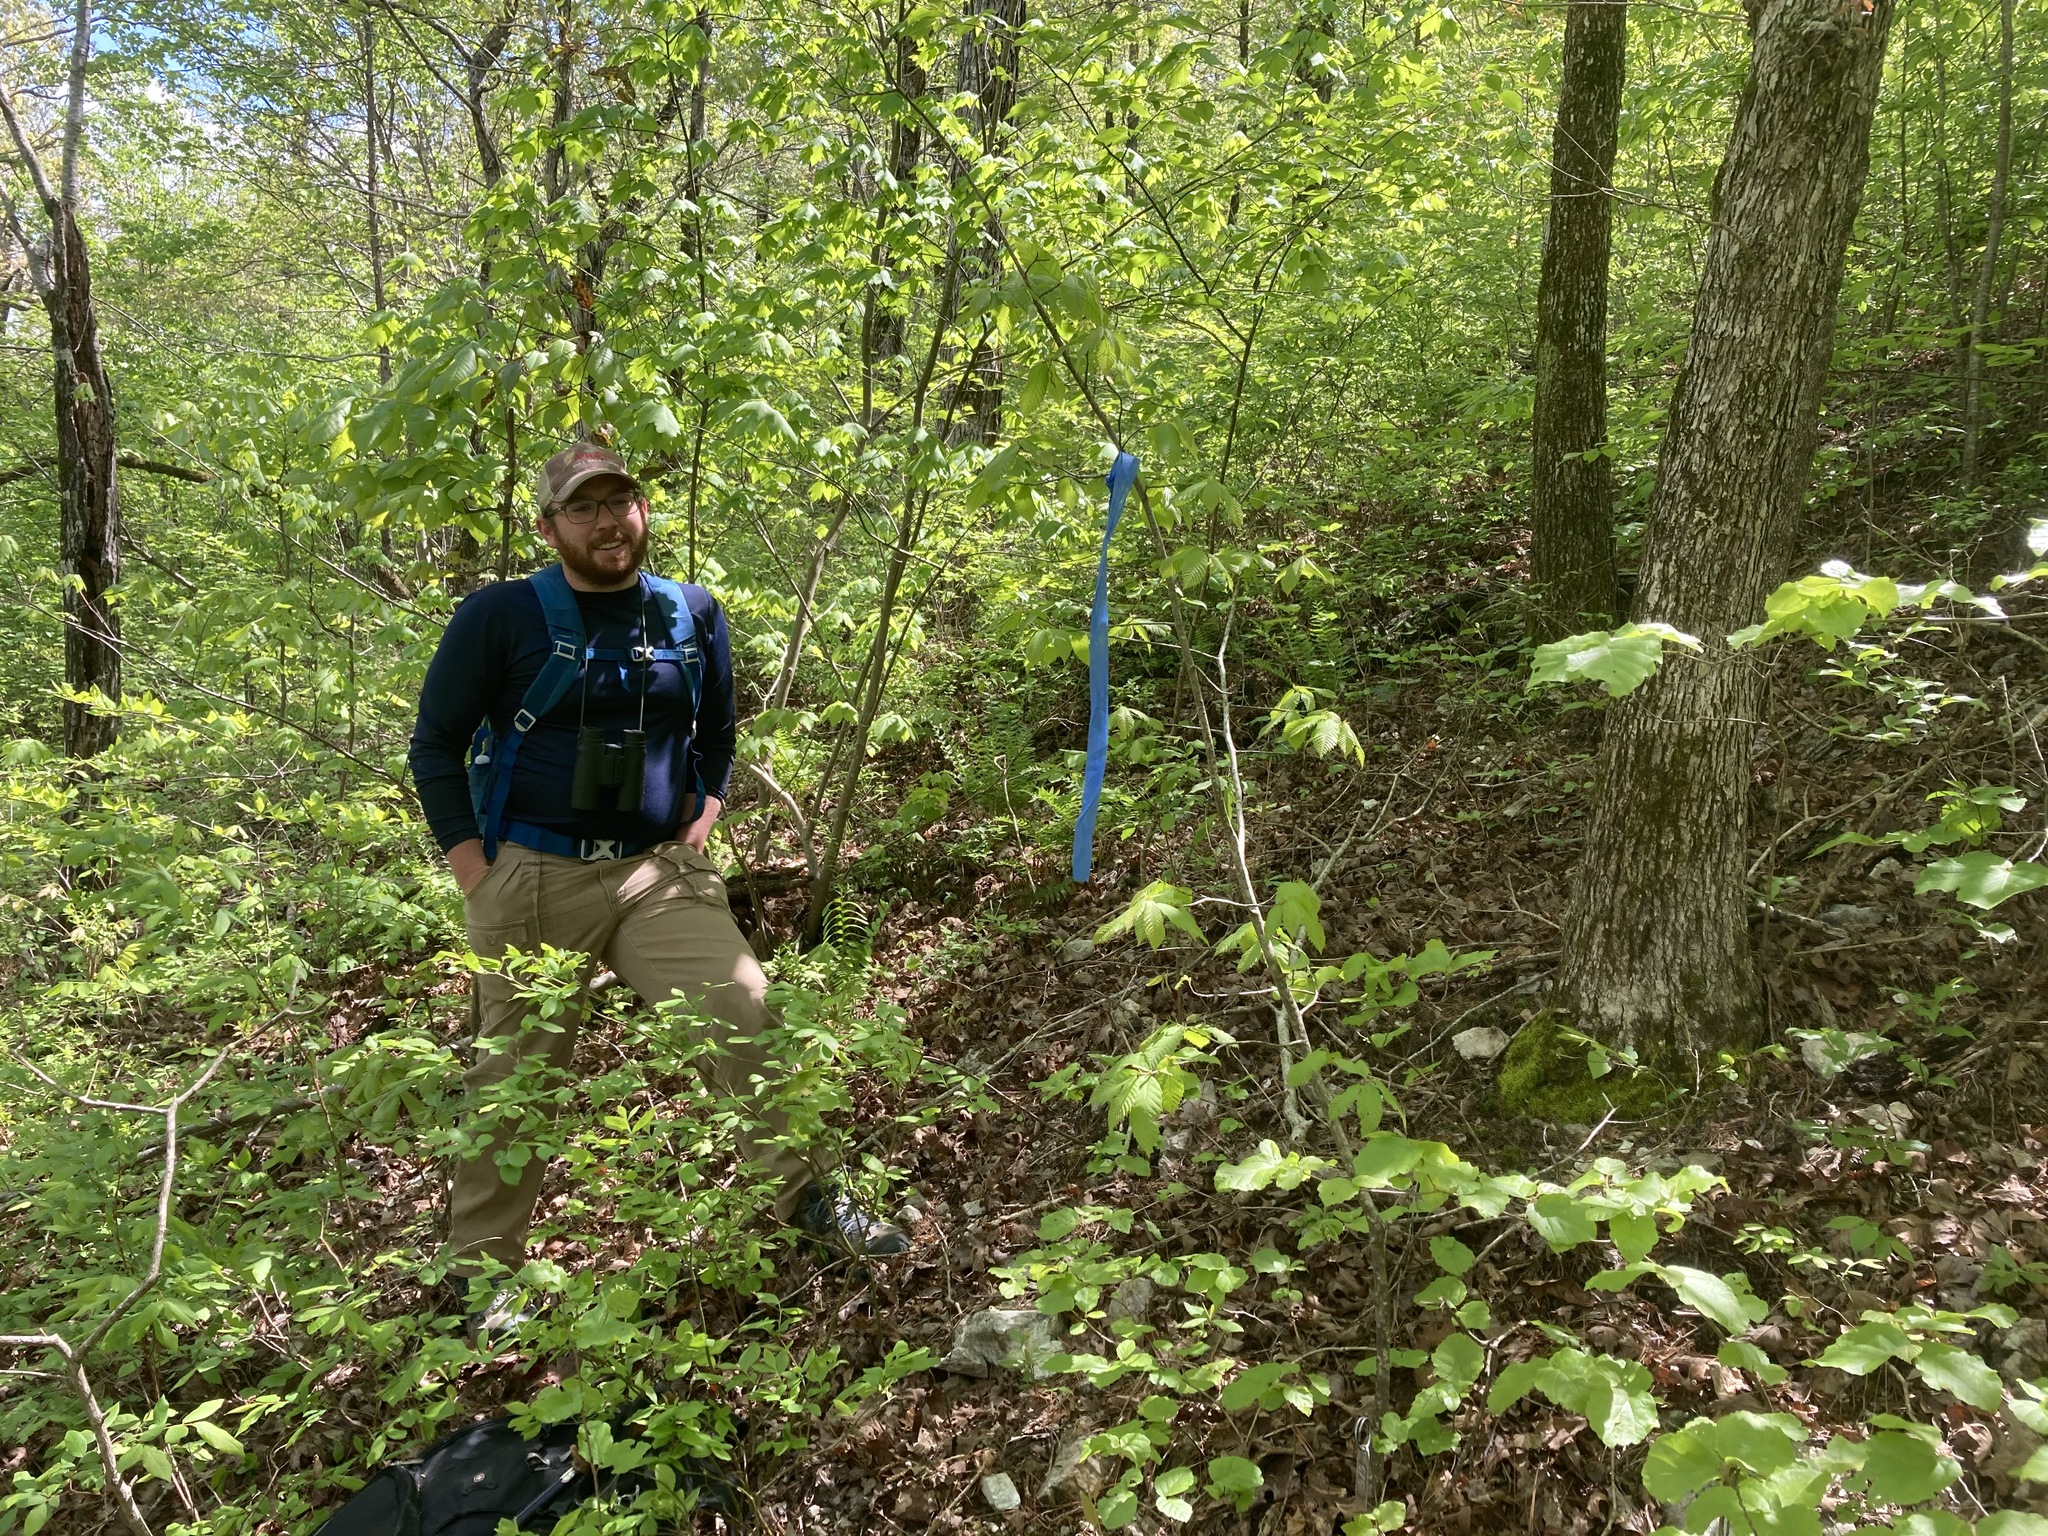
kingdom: Plantae
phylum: Tracheophyta
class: Magnoliopsida
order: Fagales
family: Fagaceae
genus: Castanea
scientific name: Castanea ozarkensis
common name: Ozark chinkapin
